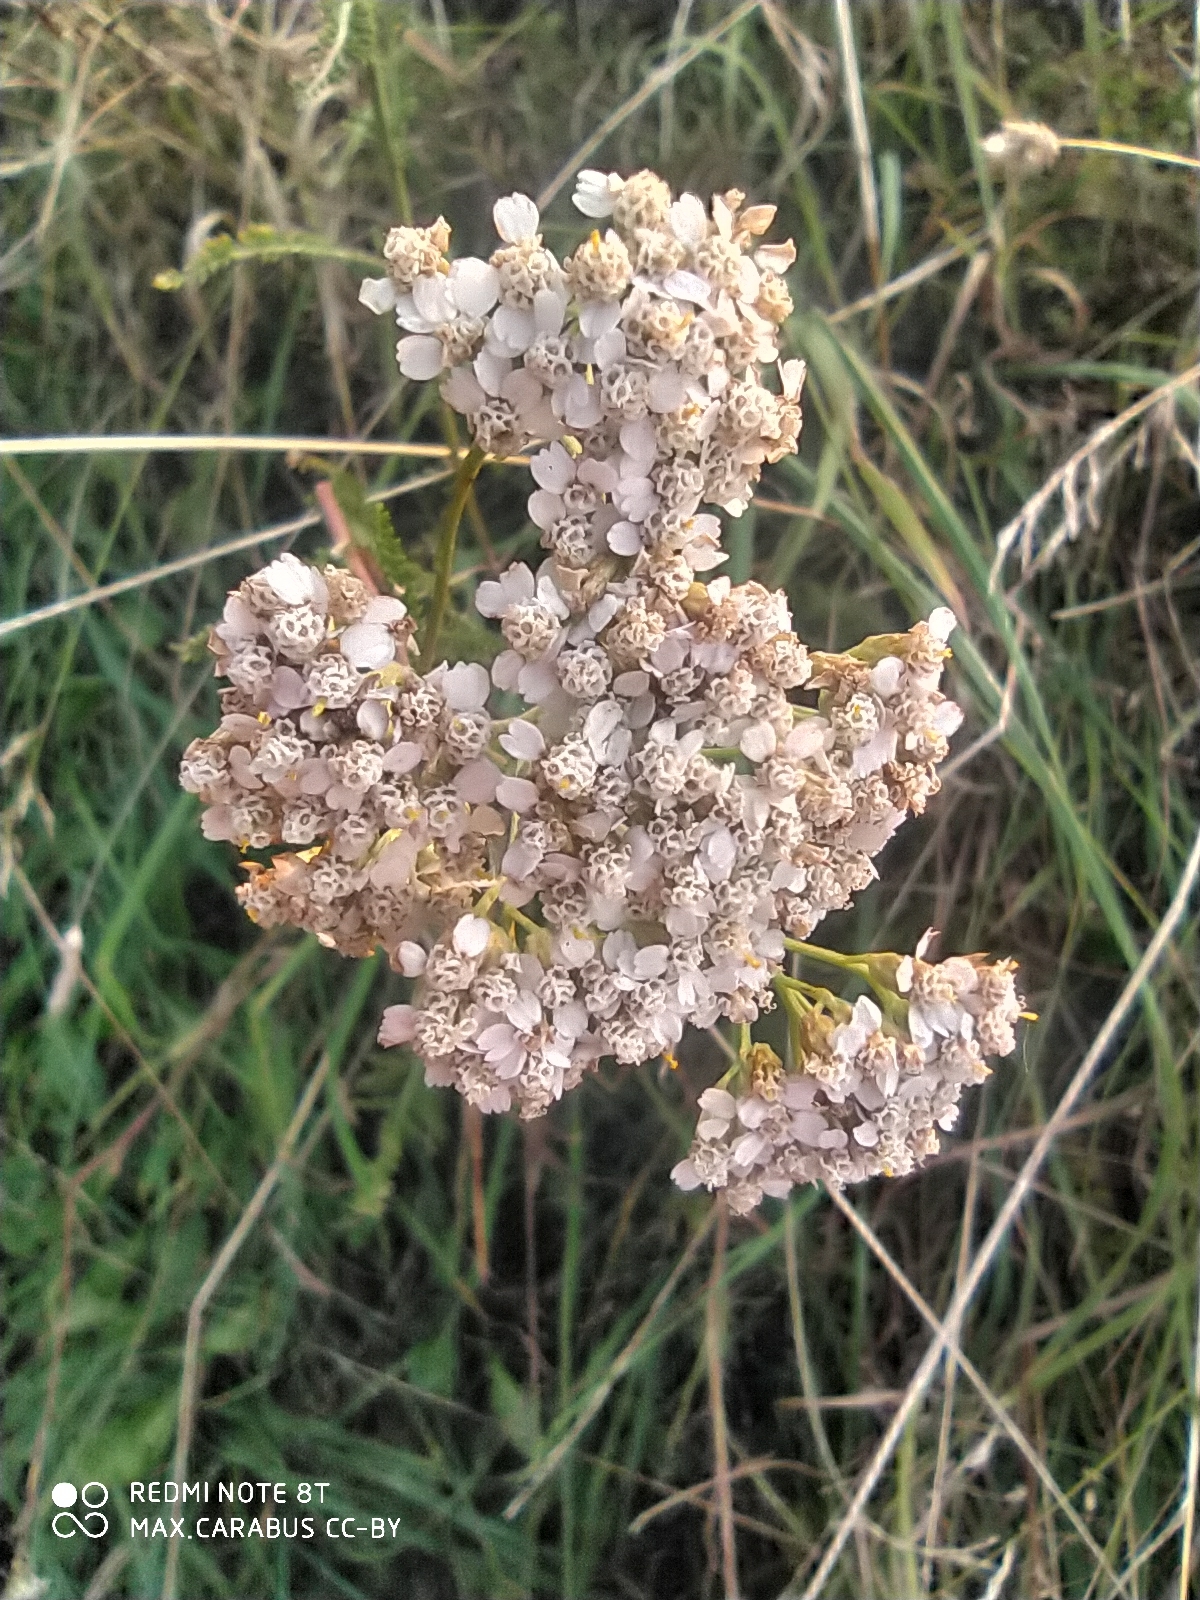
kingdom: Plantae
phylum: Tracheophyta
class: Magnoliopsida
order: Asterales
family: Asteraceae
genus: Achillea
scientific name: Achillea millefolium
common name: Yarrow
